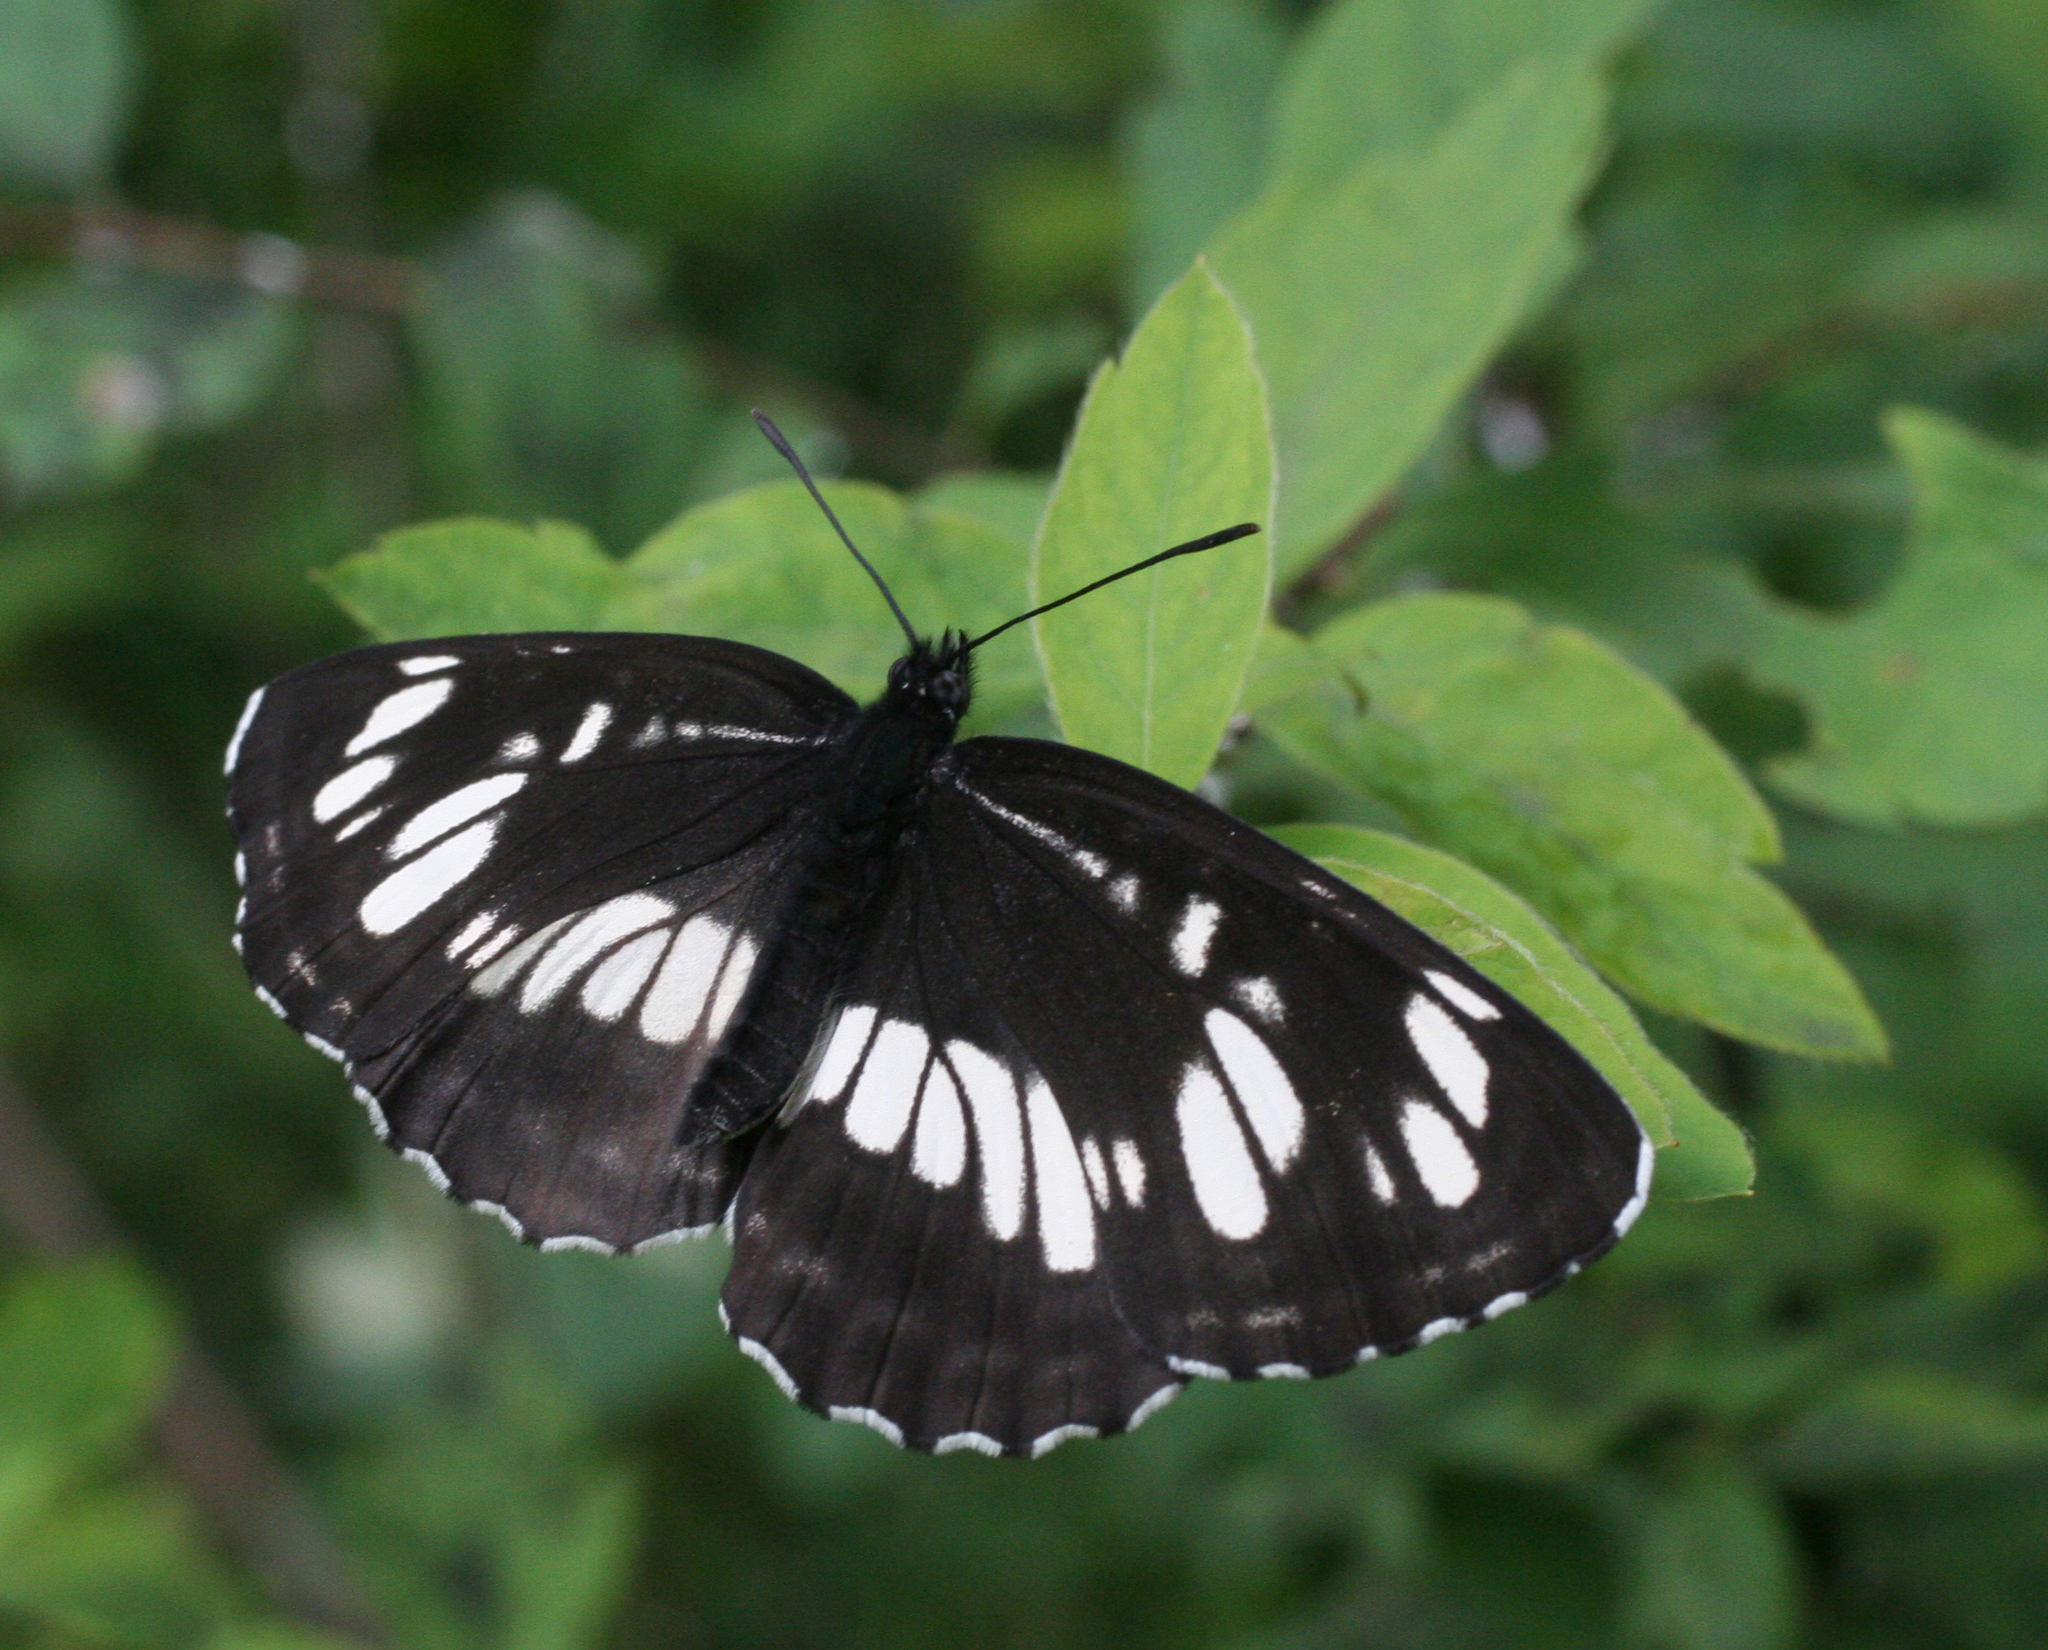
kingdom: Animalia
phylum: Arthropoda
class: Insecta
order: Lepidoptera
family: Nymphalidae
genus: Neptis
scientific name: Neptis rivularis
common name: Hungarian glider
